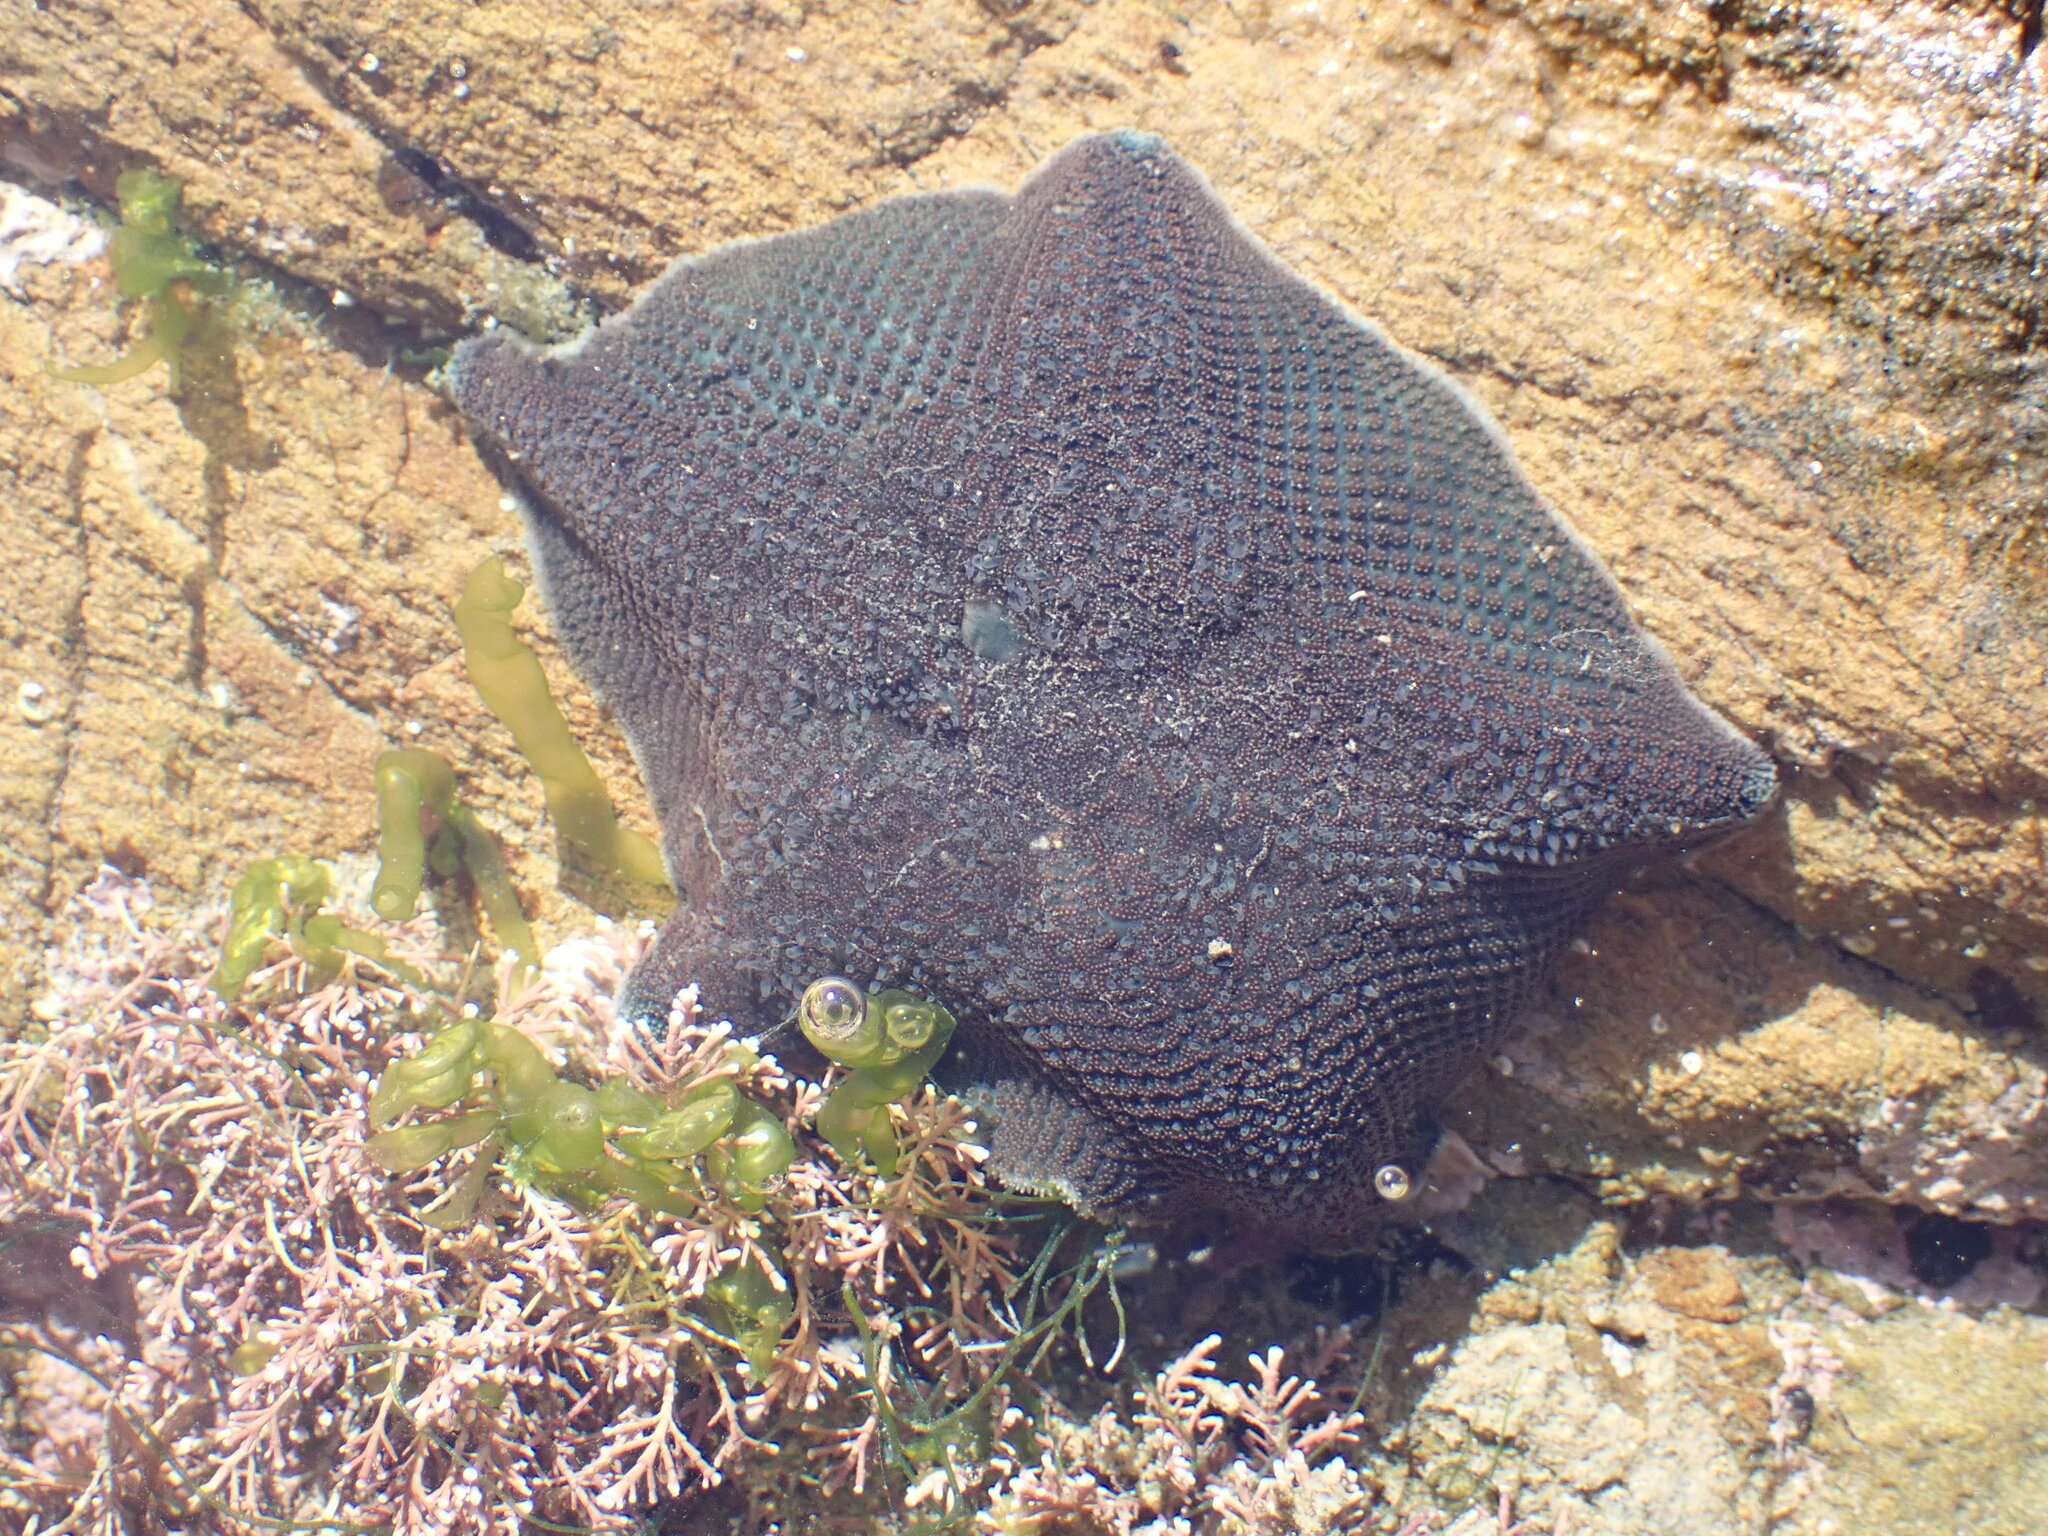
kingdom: Animalia
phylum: Echinodermata
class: Asteroidea
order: Valvatida
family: Asterinidae
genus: Patiriella
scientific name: Patiriella regularis
